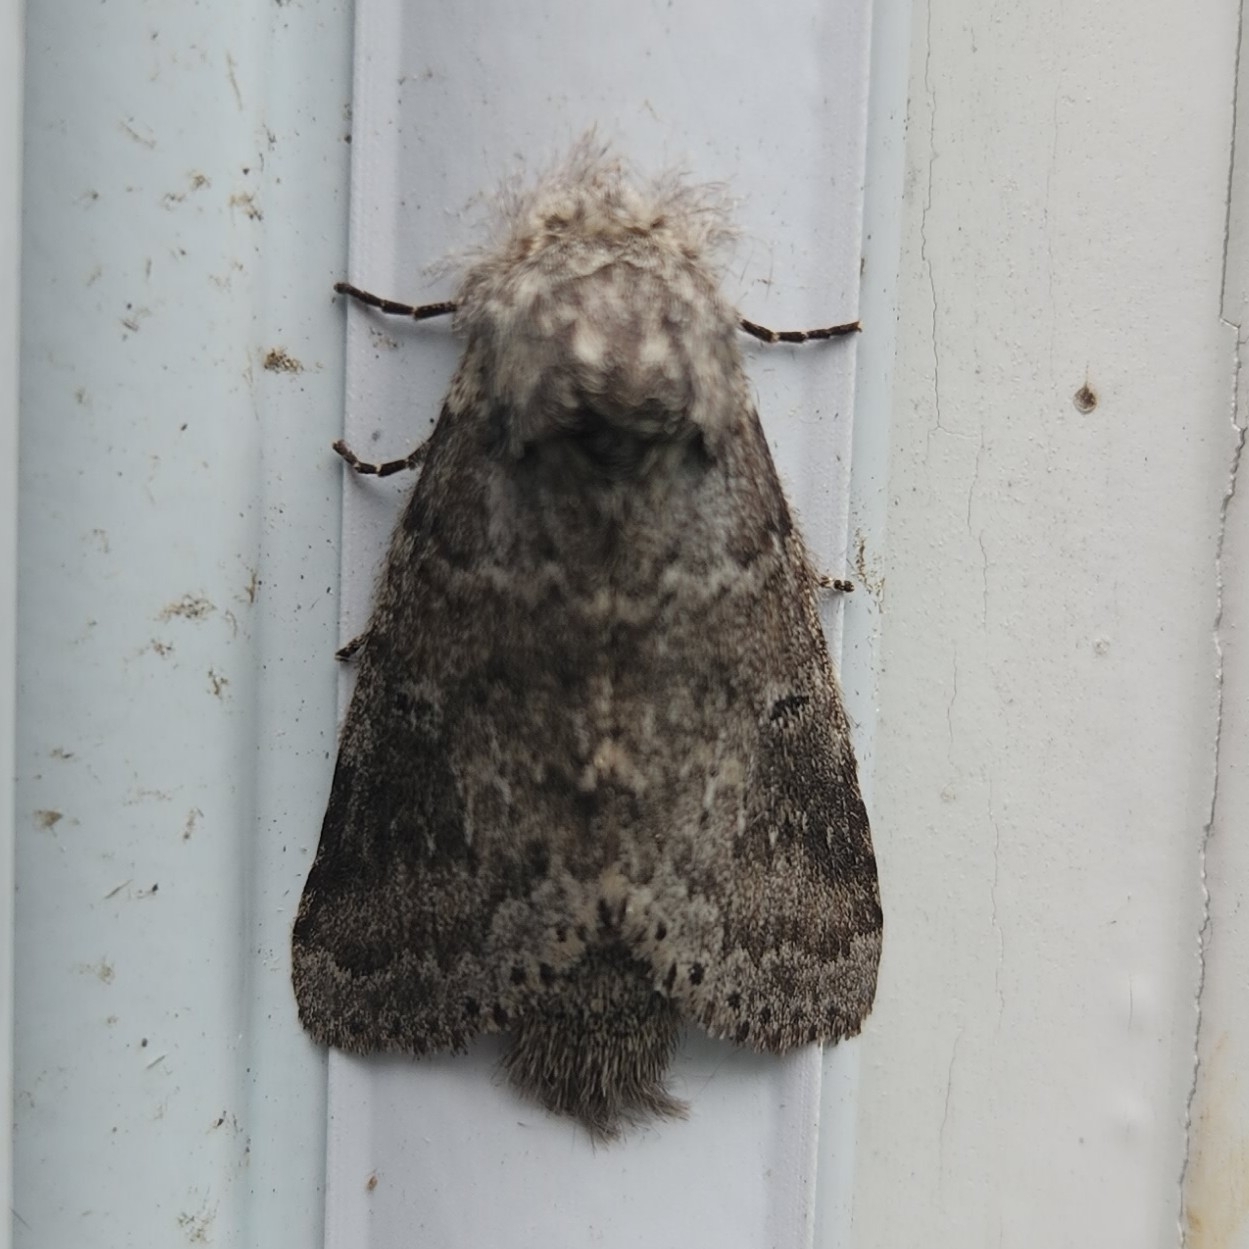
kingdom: Animalia
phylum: Arthropoda
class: Insecta
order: Lepidoptera
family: Notodontidae
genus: Lochmaeus
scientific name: Lochmaeus manteo
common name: Variable oakleaf caterpillar moth
